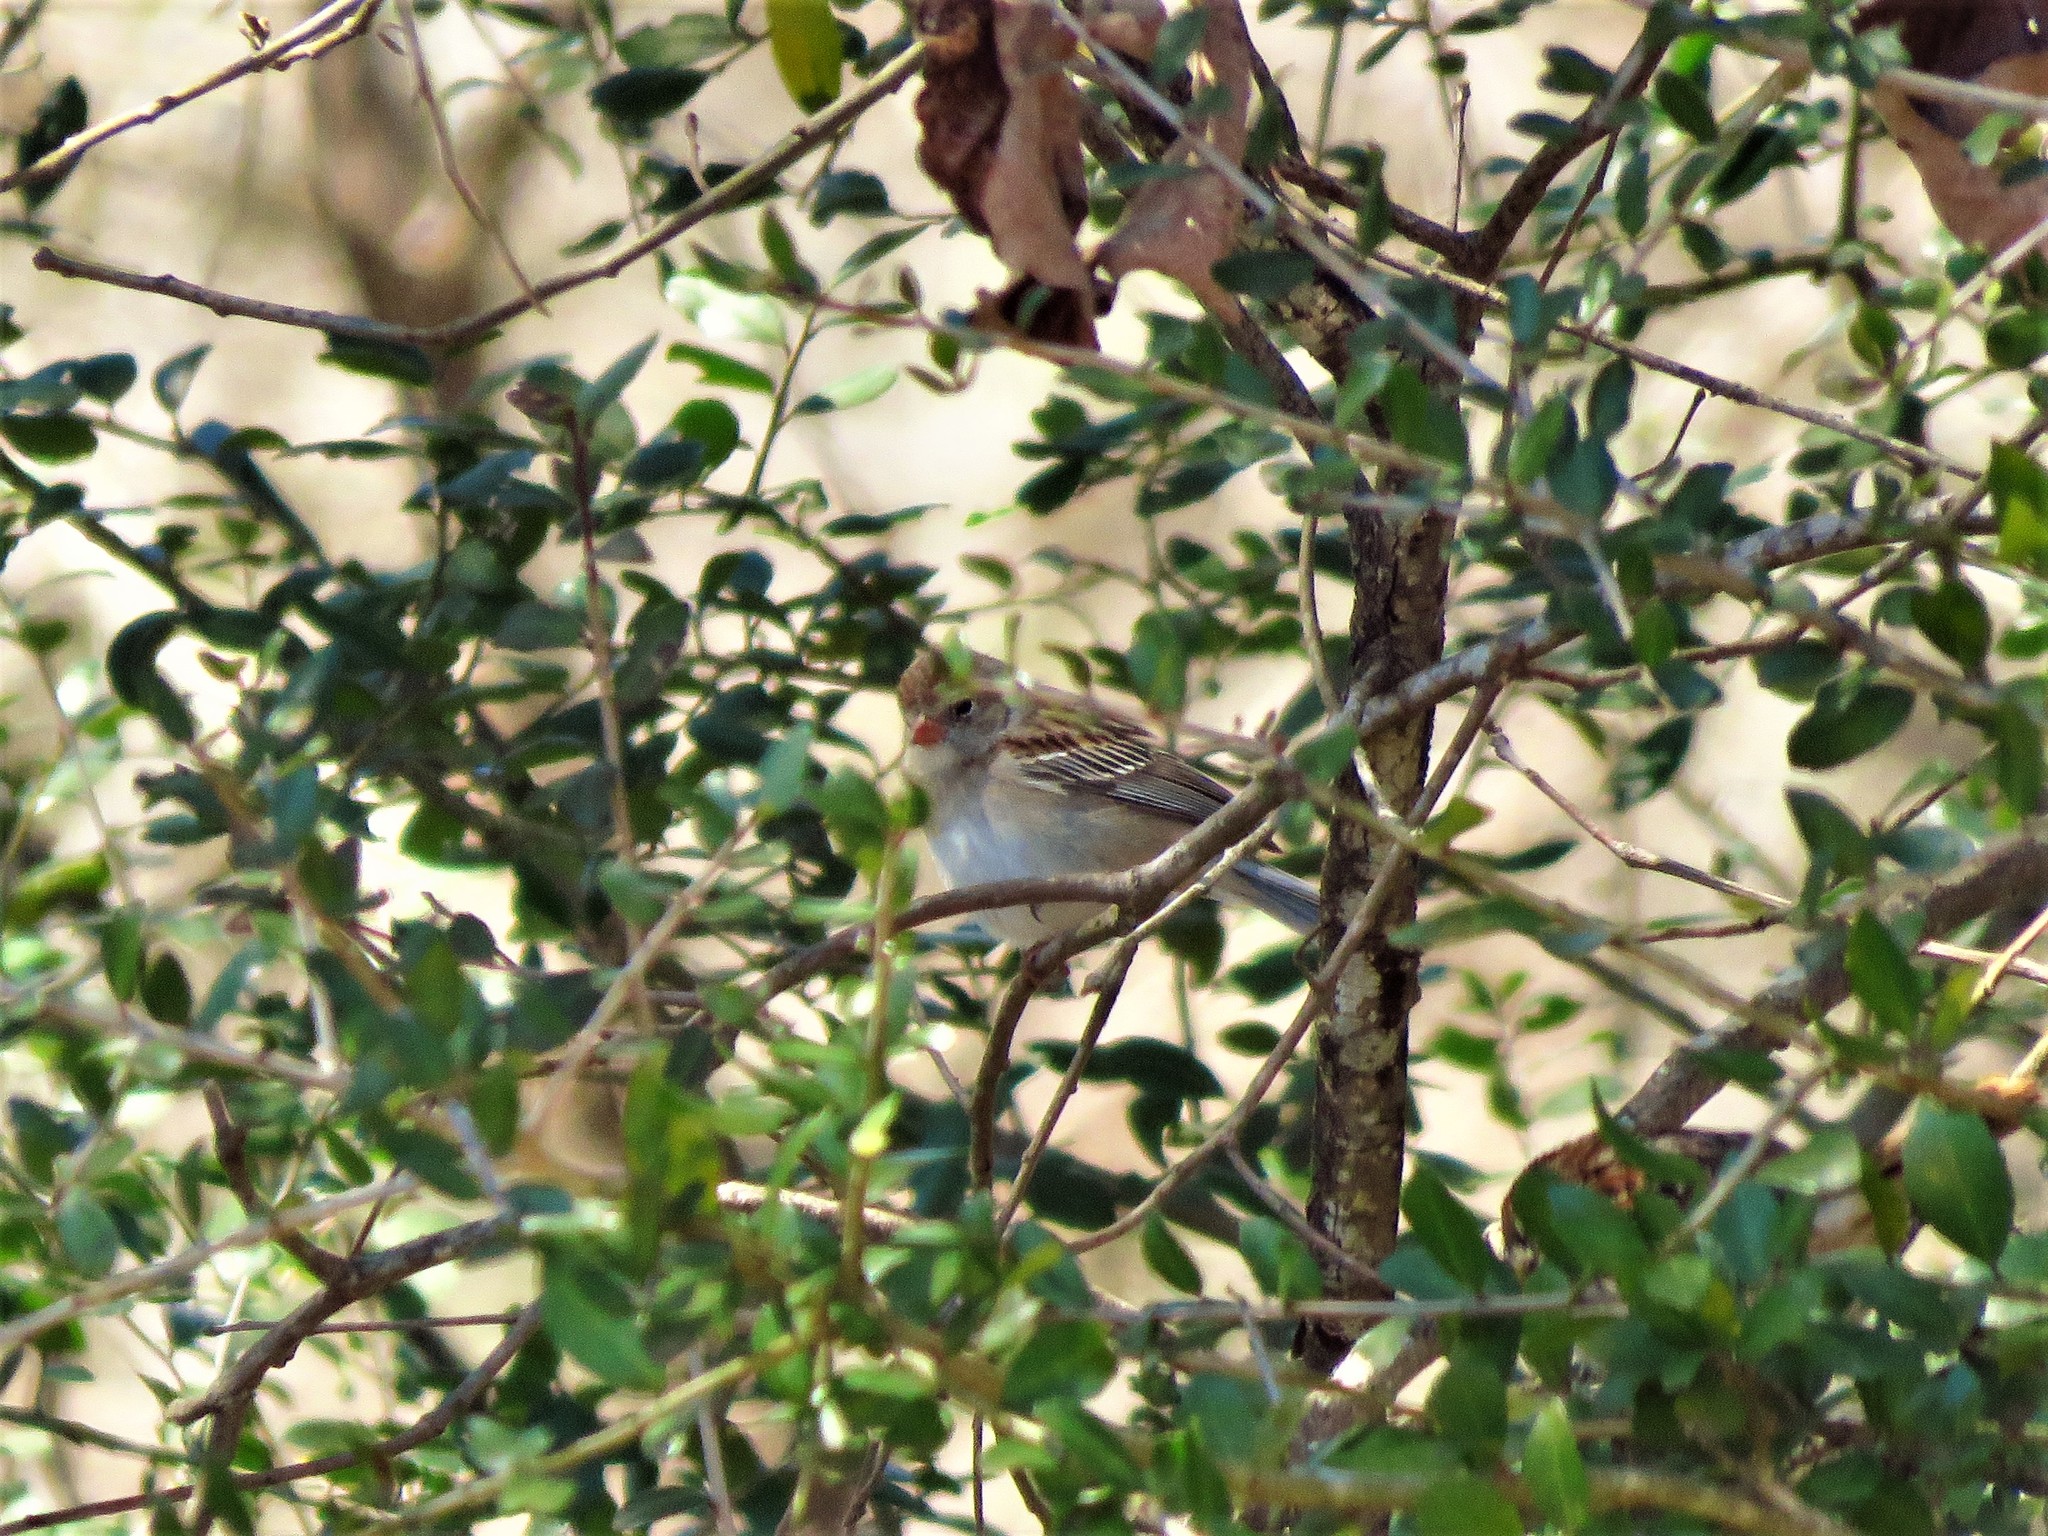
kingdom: Animalia
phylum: Chordata
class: Aves
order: Passeriformes
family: Passerellidae
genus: Spizella
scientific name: Spizella pusilla
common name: Field sparrow
